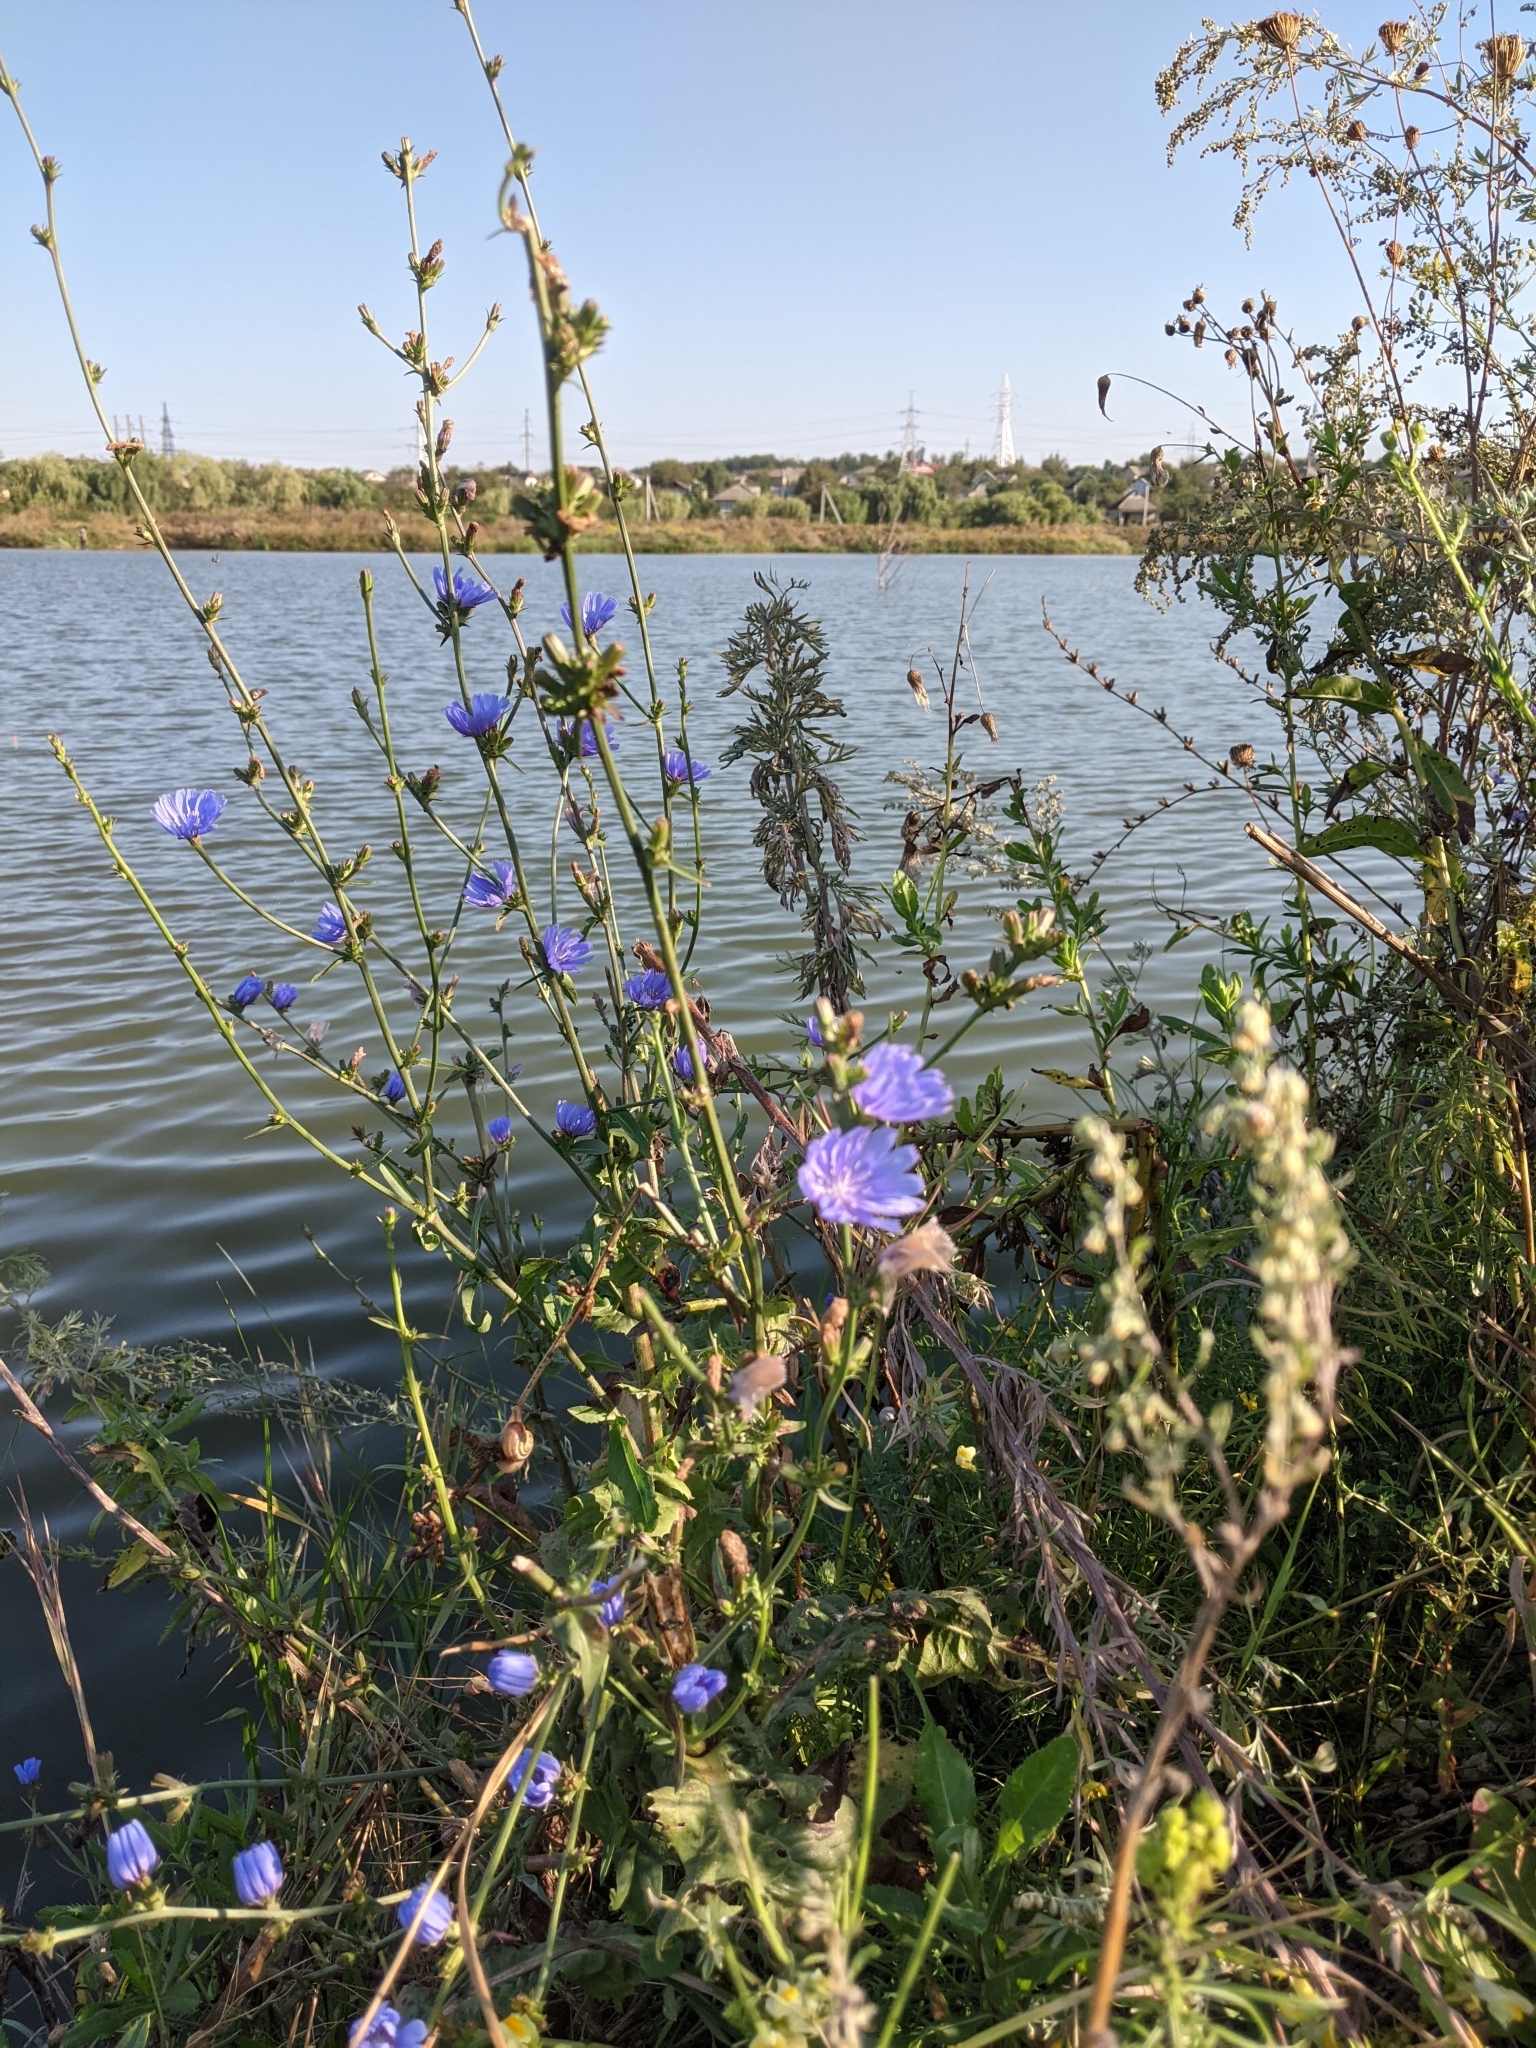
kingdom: Plantae
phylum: Tracheophyta
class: Magnoliopsida
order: Asterales
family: Asteraceae
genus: Cichorium
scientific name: Cichorium intybus
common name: Chicory
